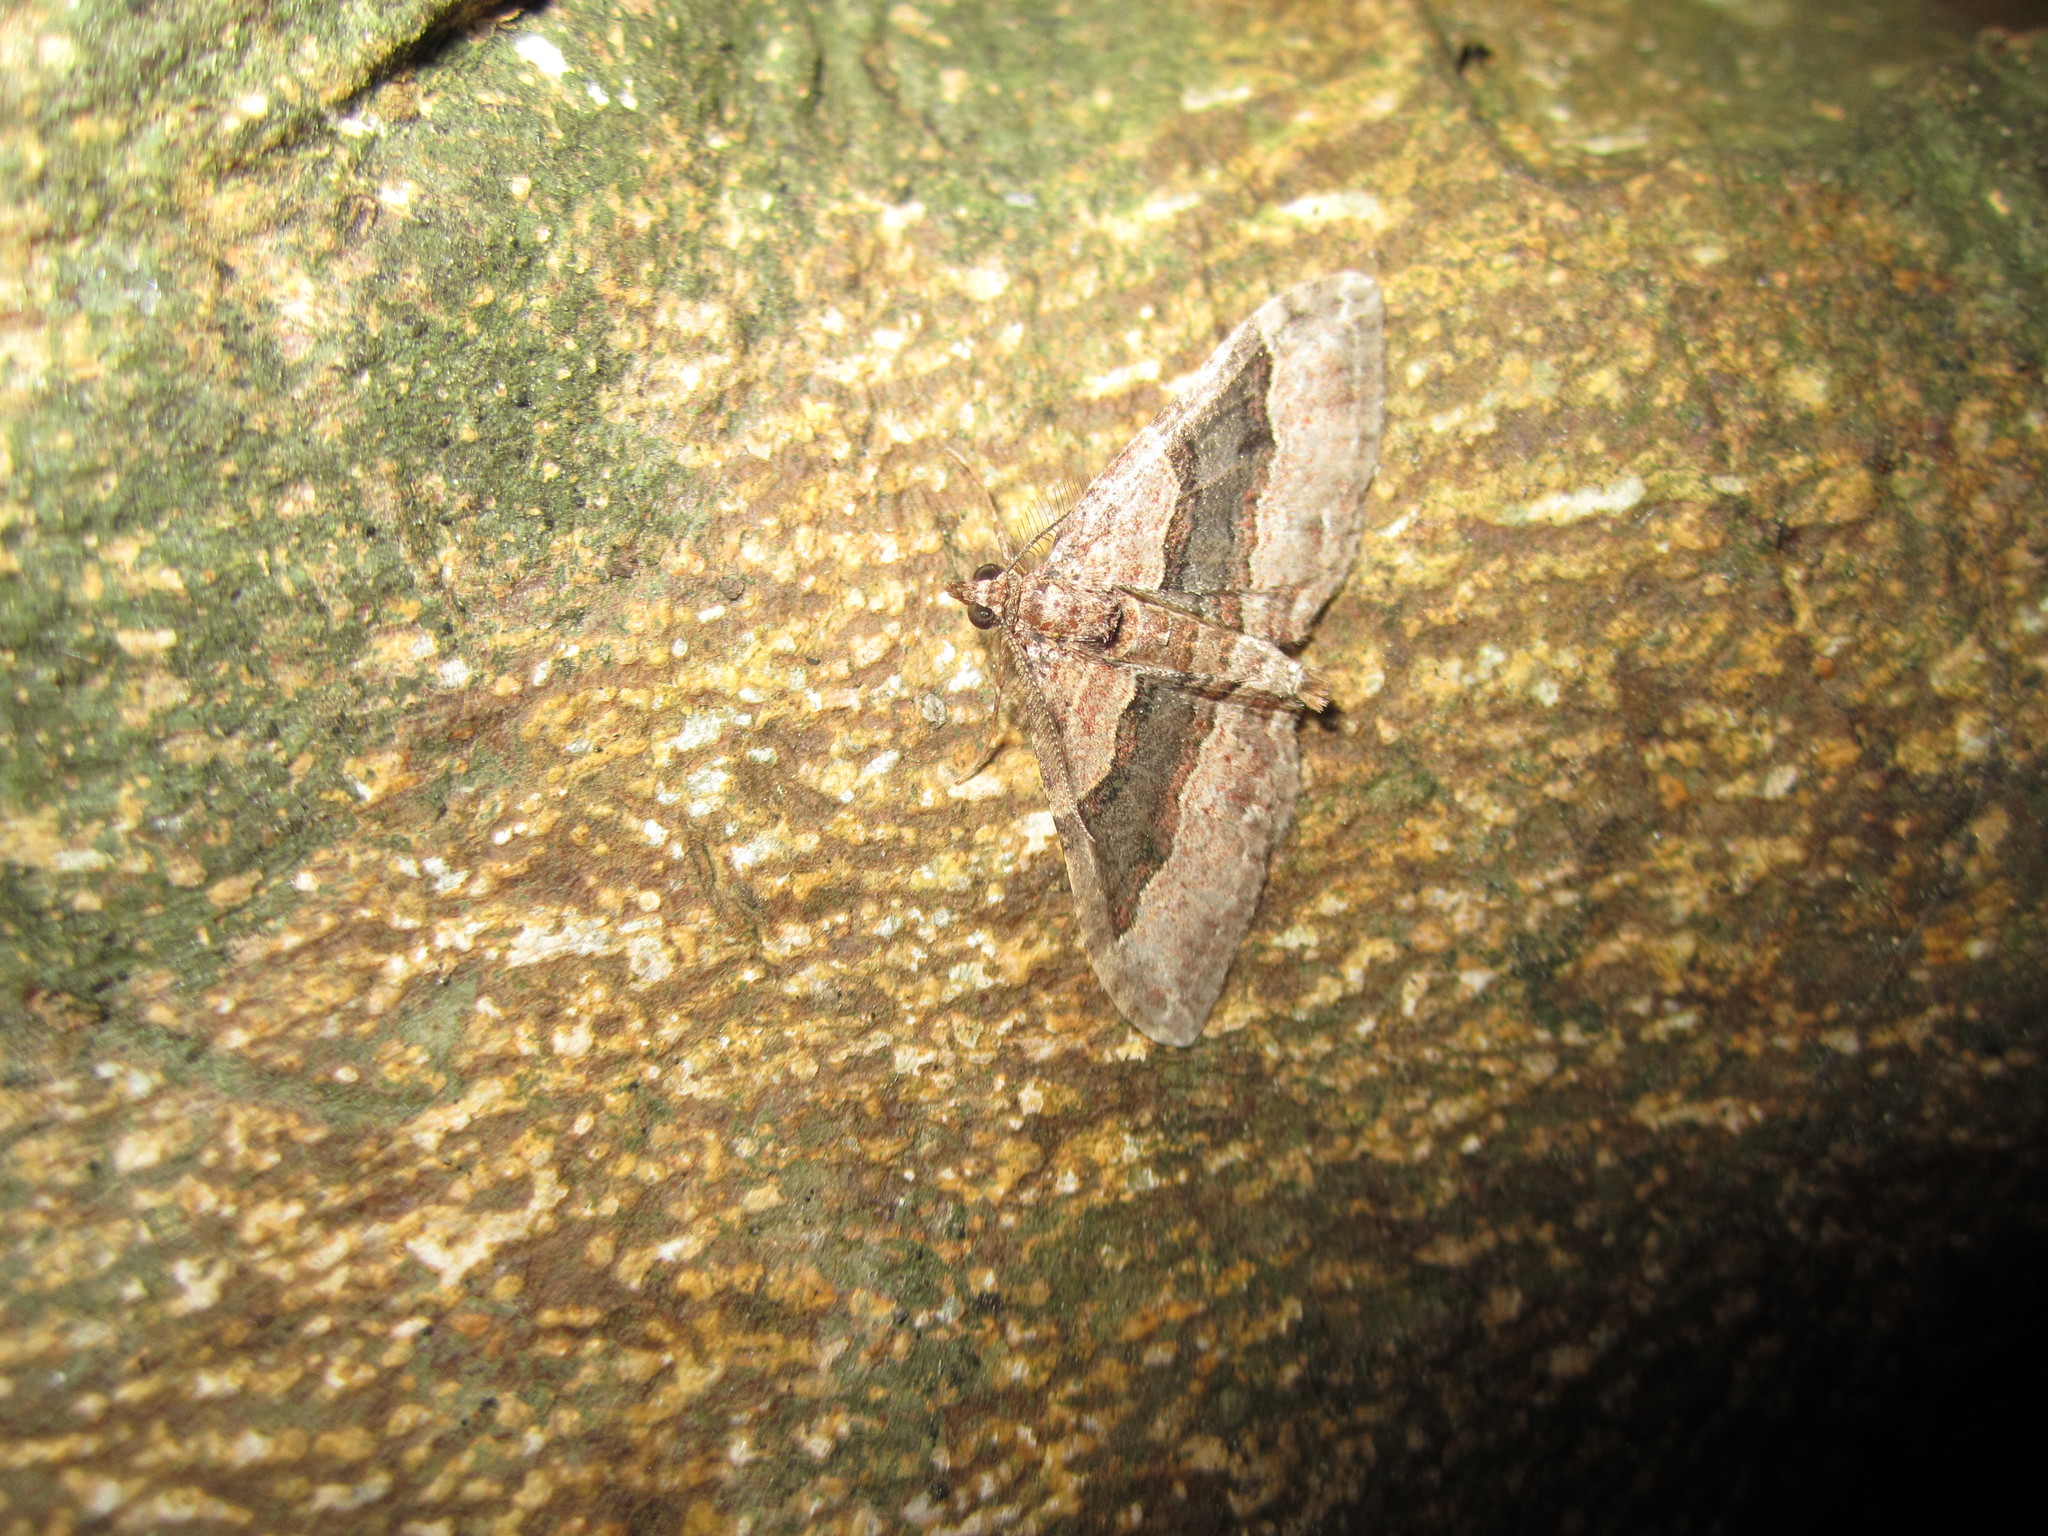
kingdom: Animalia
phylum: Arthropoda
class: Insecta
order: Lepidoptera
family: Geometridae
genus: Epyaxa
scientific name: Epyaxa lucidata
